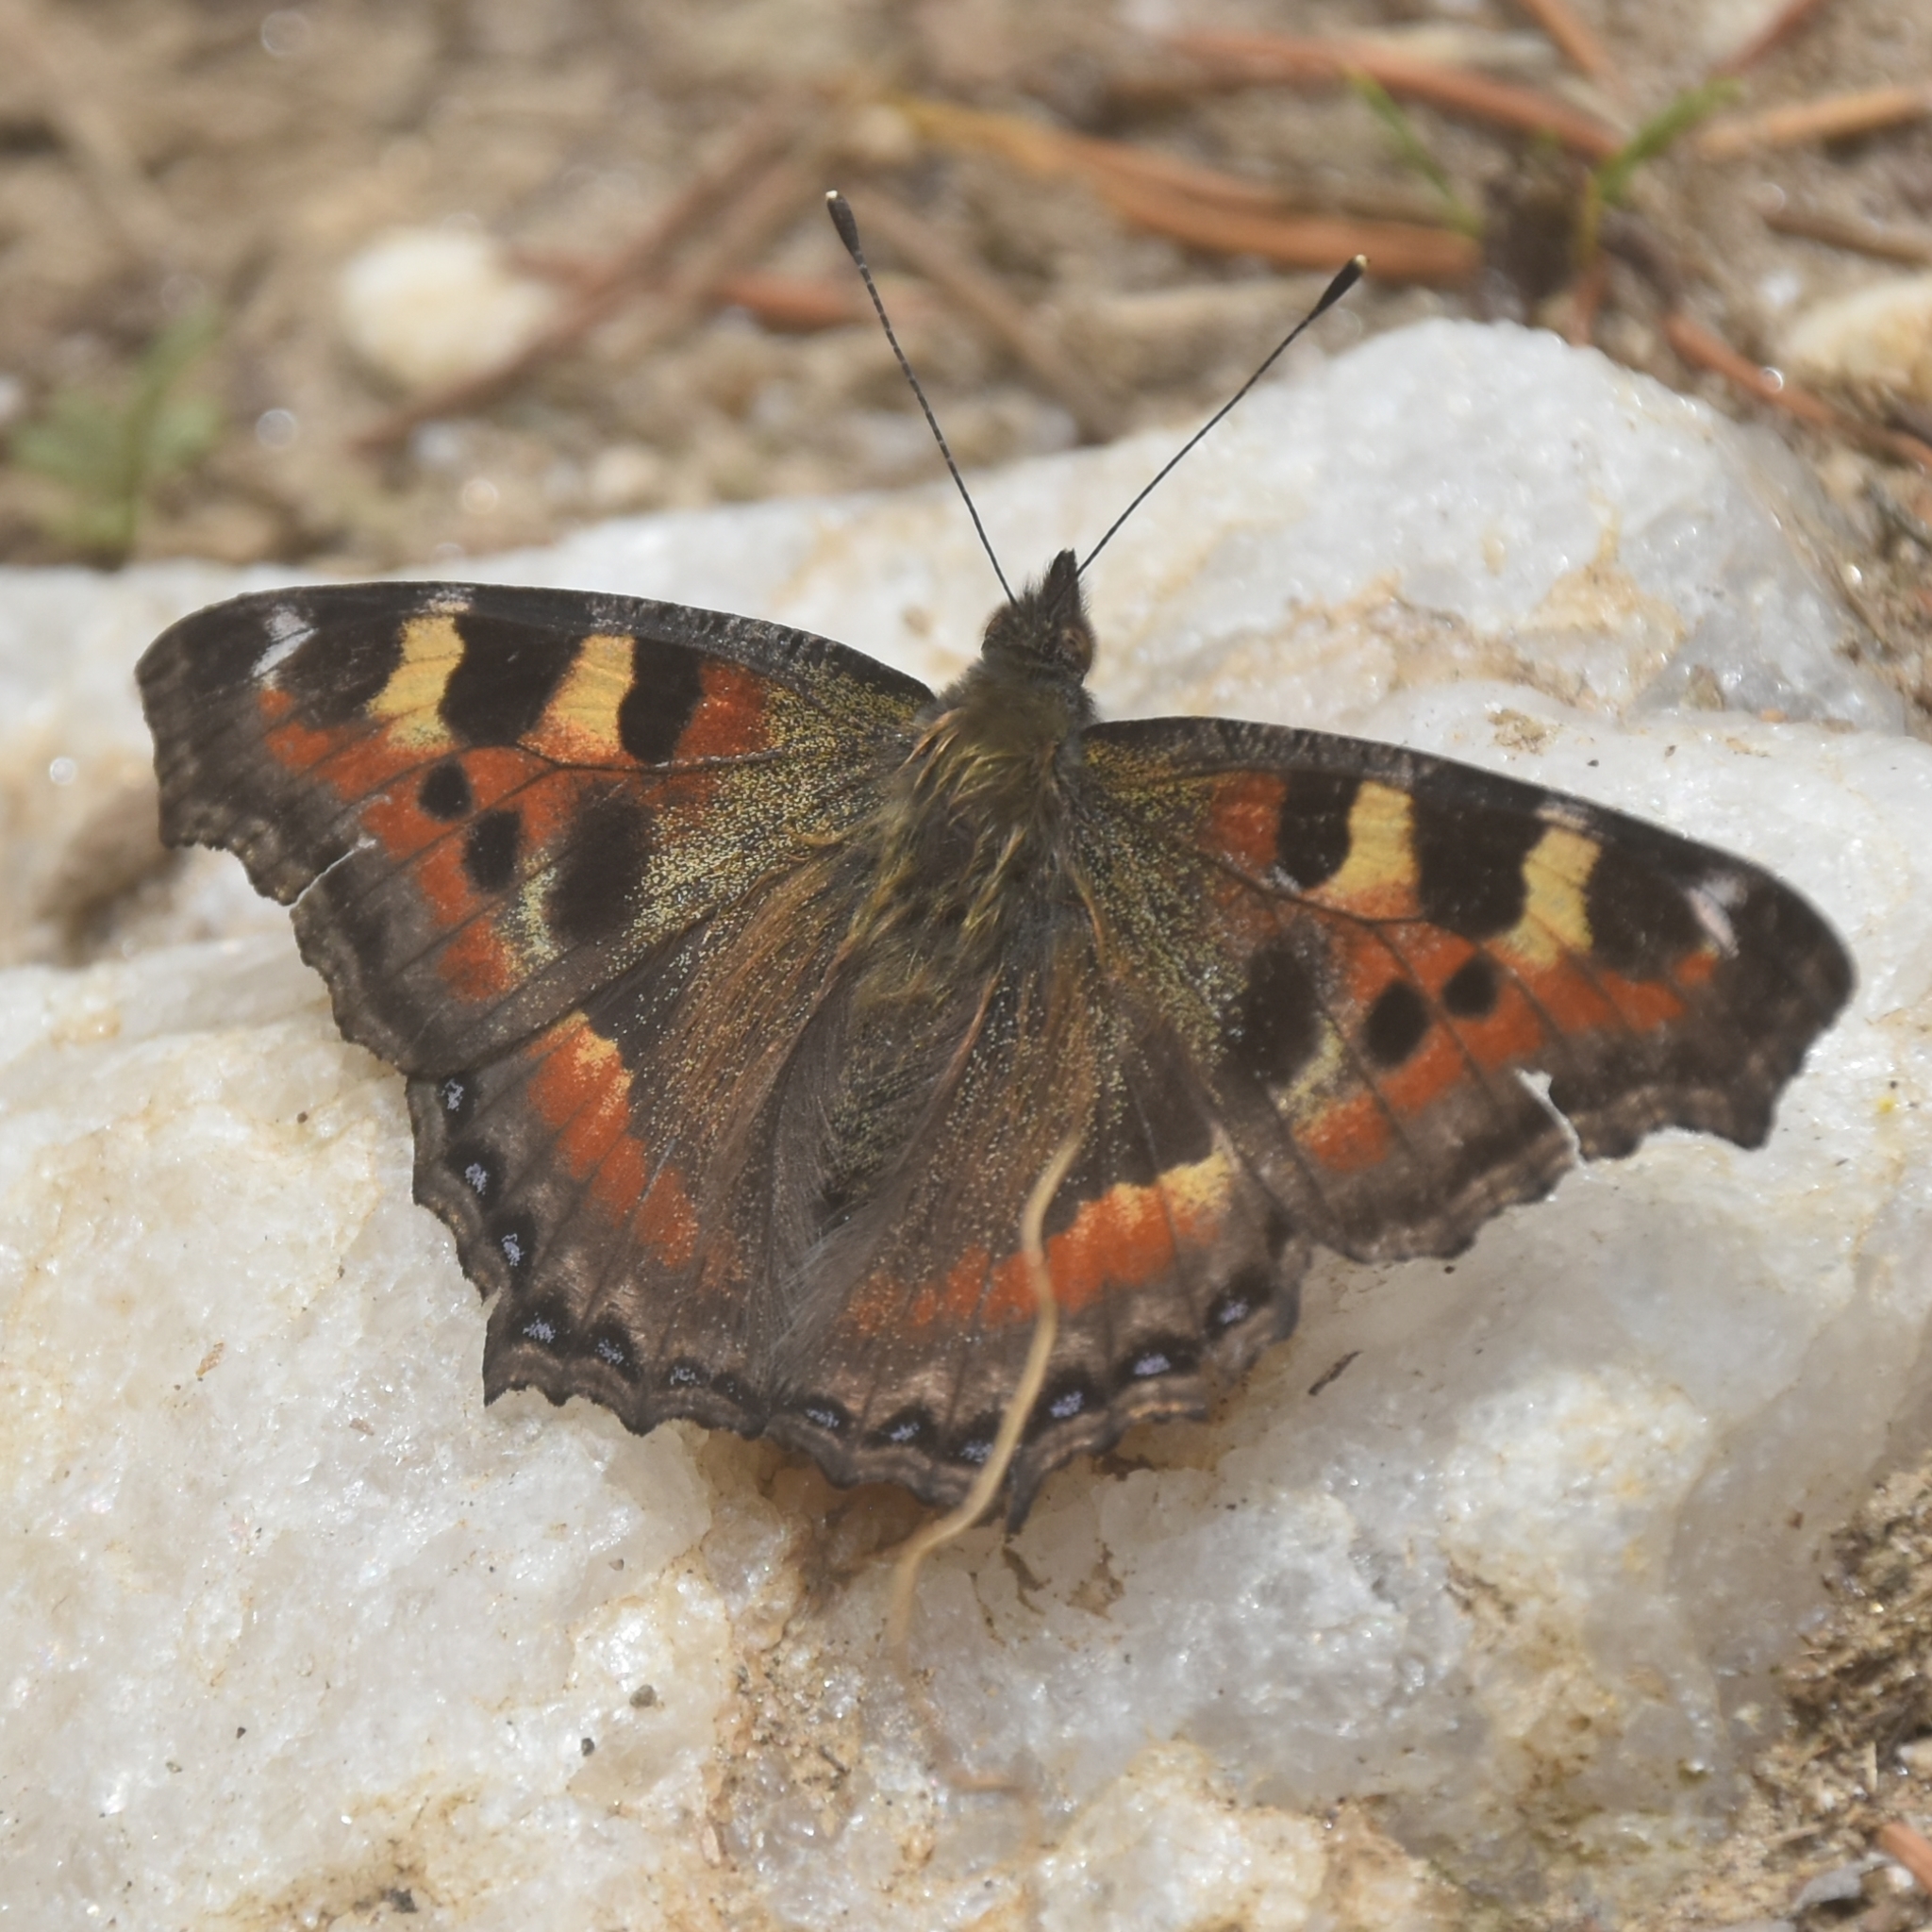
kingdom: Animalia
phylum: Arthropoda
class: Insecta
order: Lepidoptera
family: Nymphalidae
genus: Aglais
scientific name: Aglais caschmirensis
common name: Indian tortoiseshell
